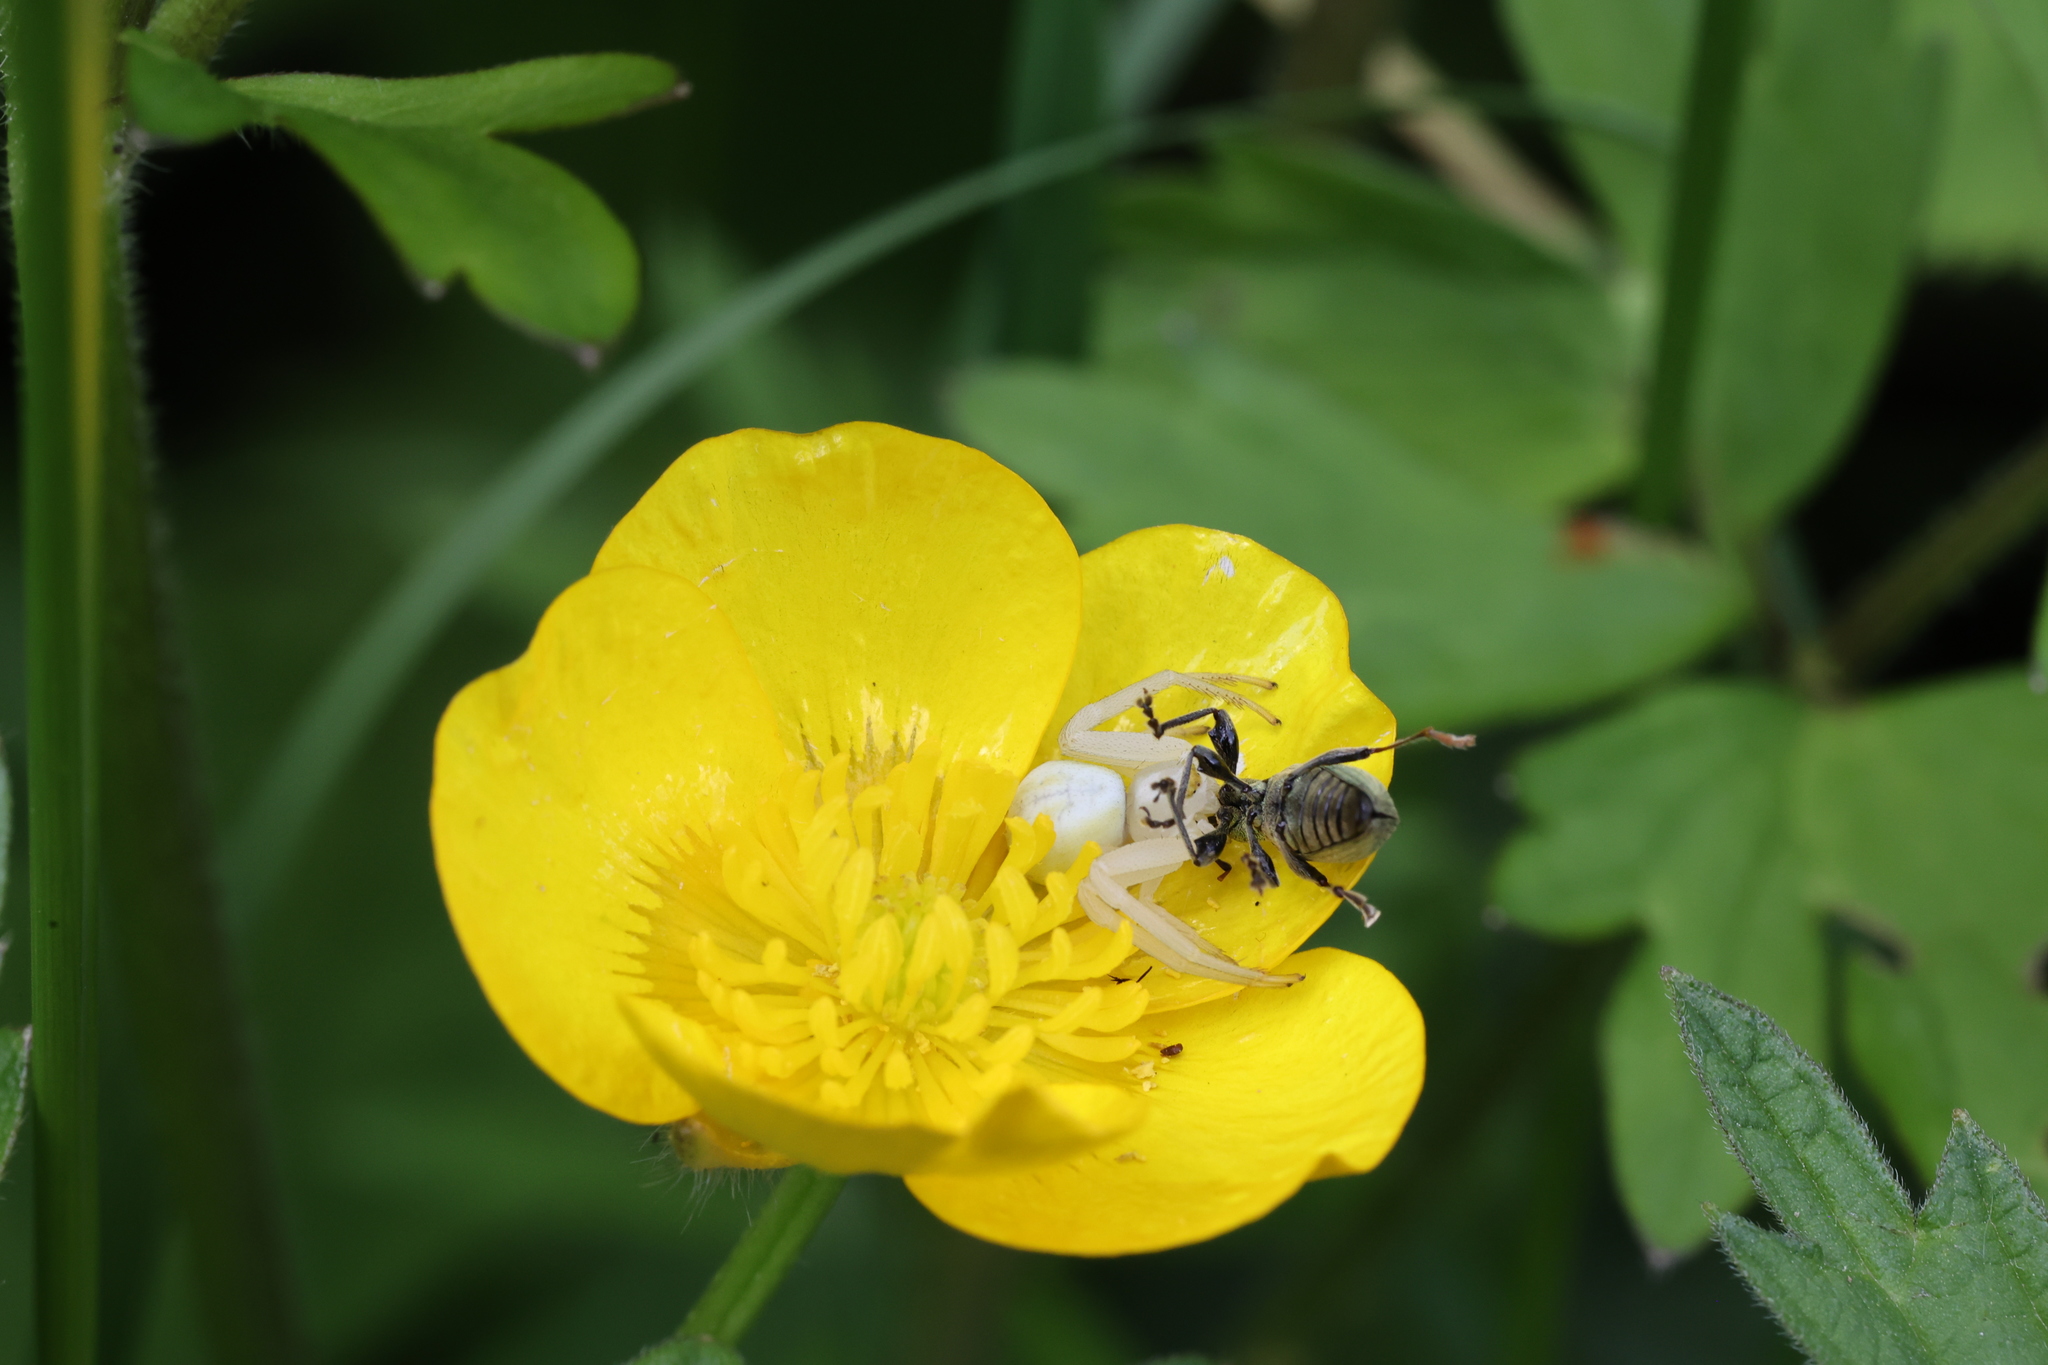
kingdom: Animalia
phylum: Arthropoda
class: Arachnida
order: Araneae
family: Thomisidae
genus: Misumena
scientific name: Misumena vatia
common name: Goldenrod crab spider
